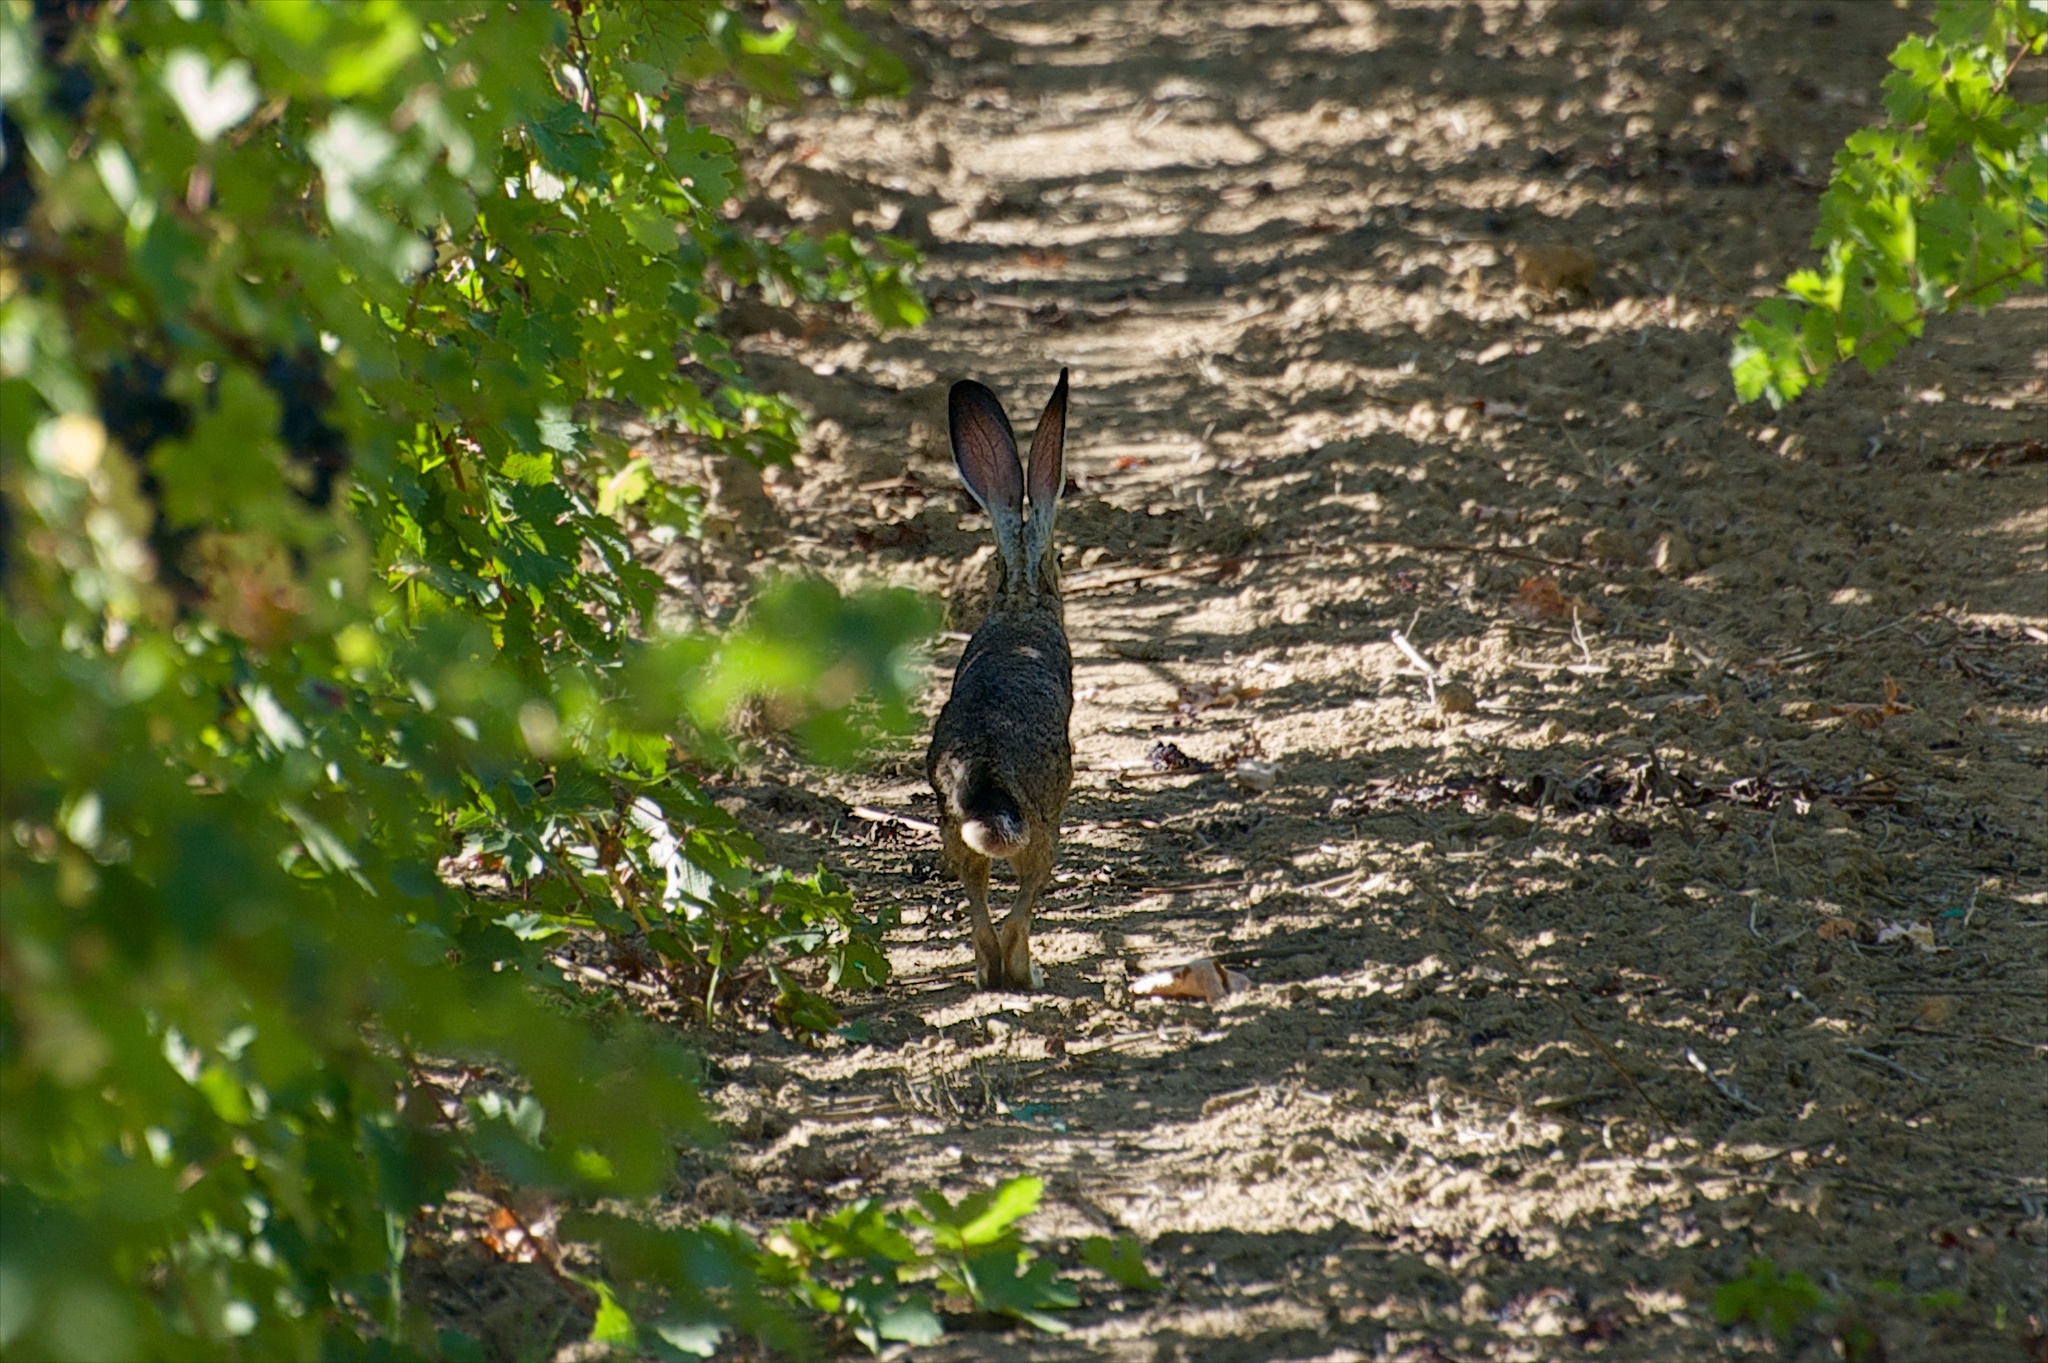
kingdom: Animalia
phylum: Chordata
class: Mammalia
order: Lagomorpha
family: Leporidae
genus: Lepus
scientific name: Lepus californicus
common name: Black-tailed jackrabbit
